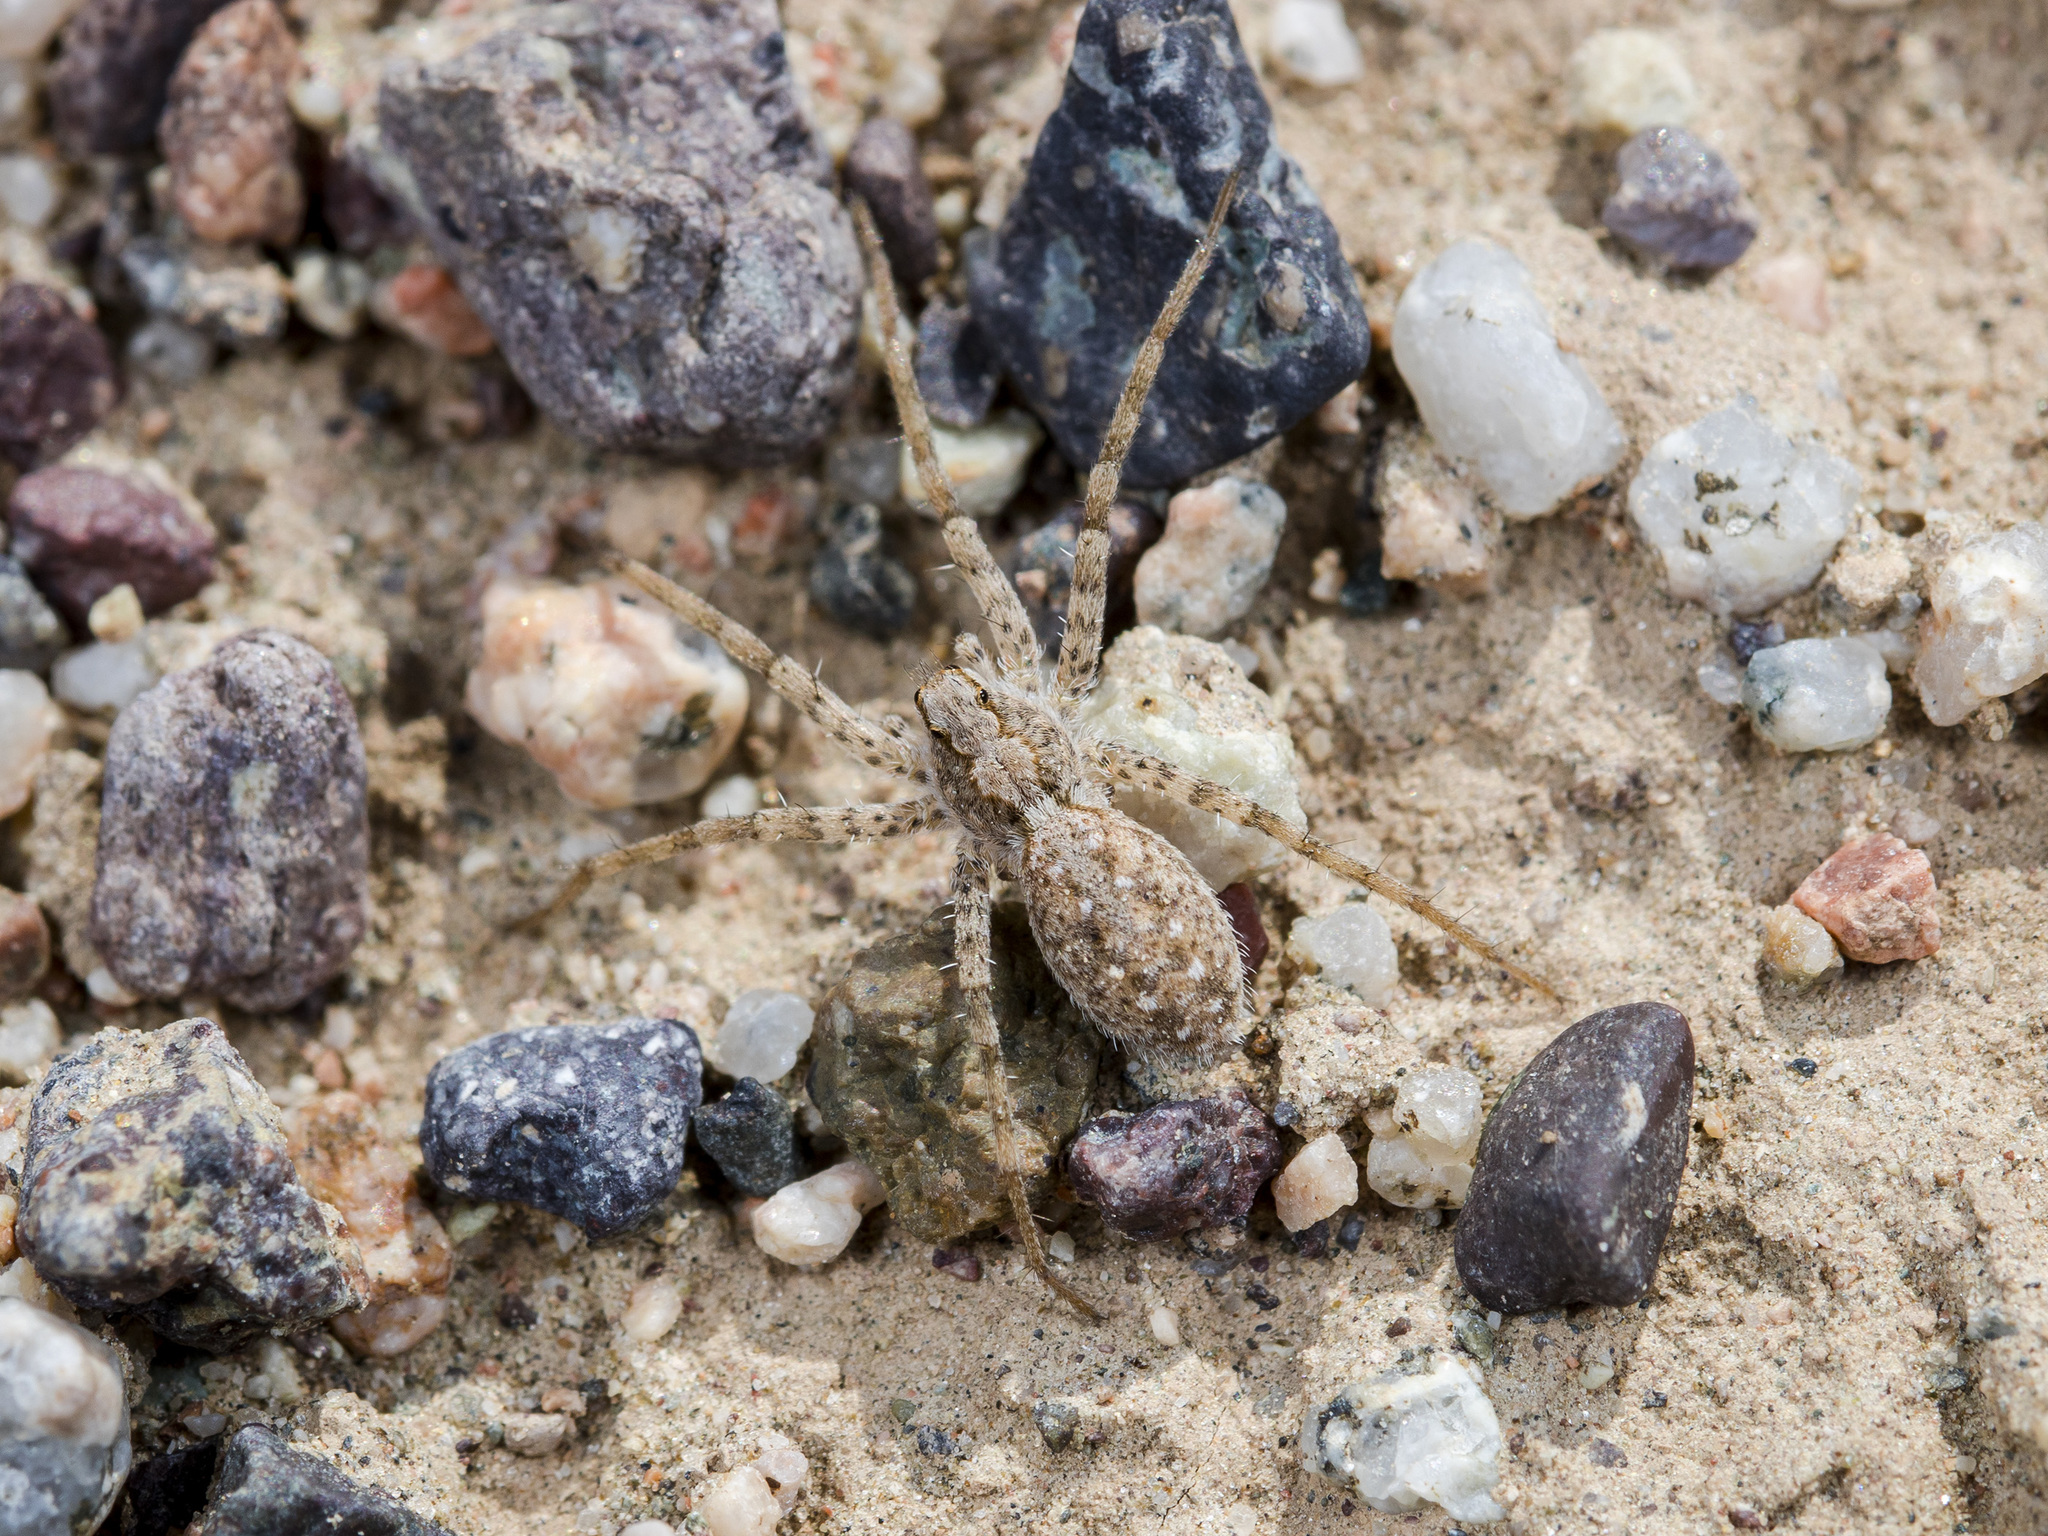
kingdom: Animalia
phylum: Arthropoda
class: Arachnida
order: Araneae
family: Lycosidae
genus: Evippa
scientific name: Evippa sjostedti
